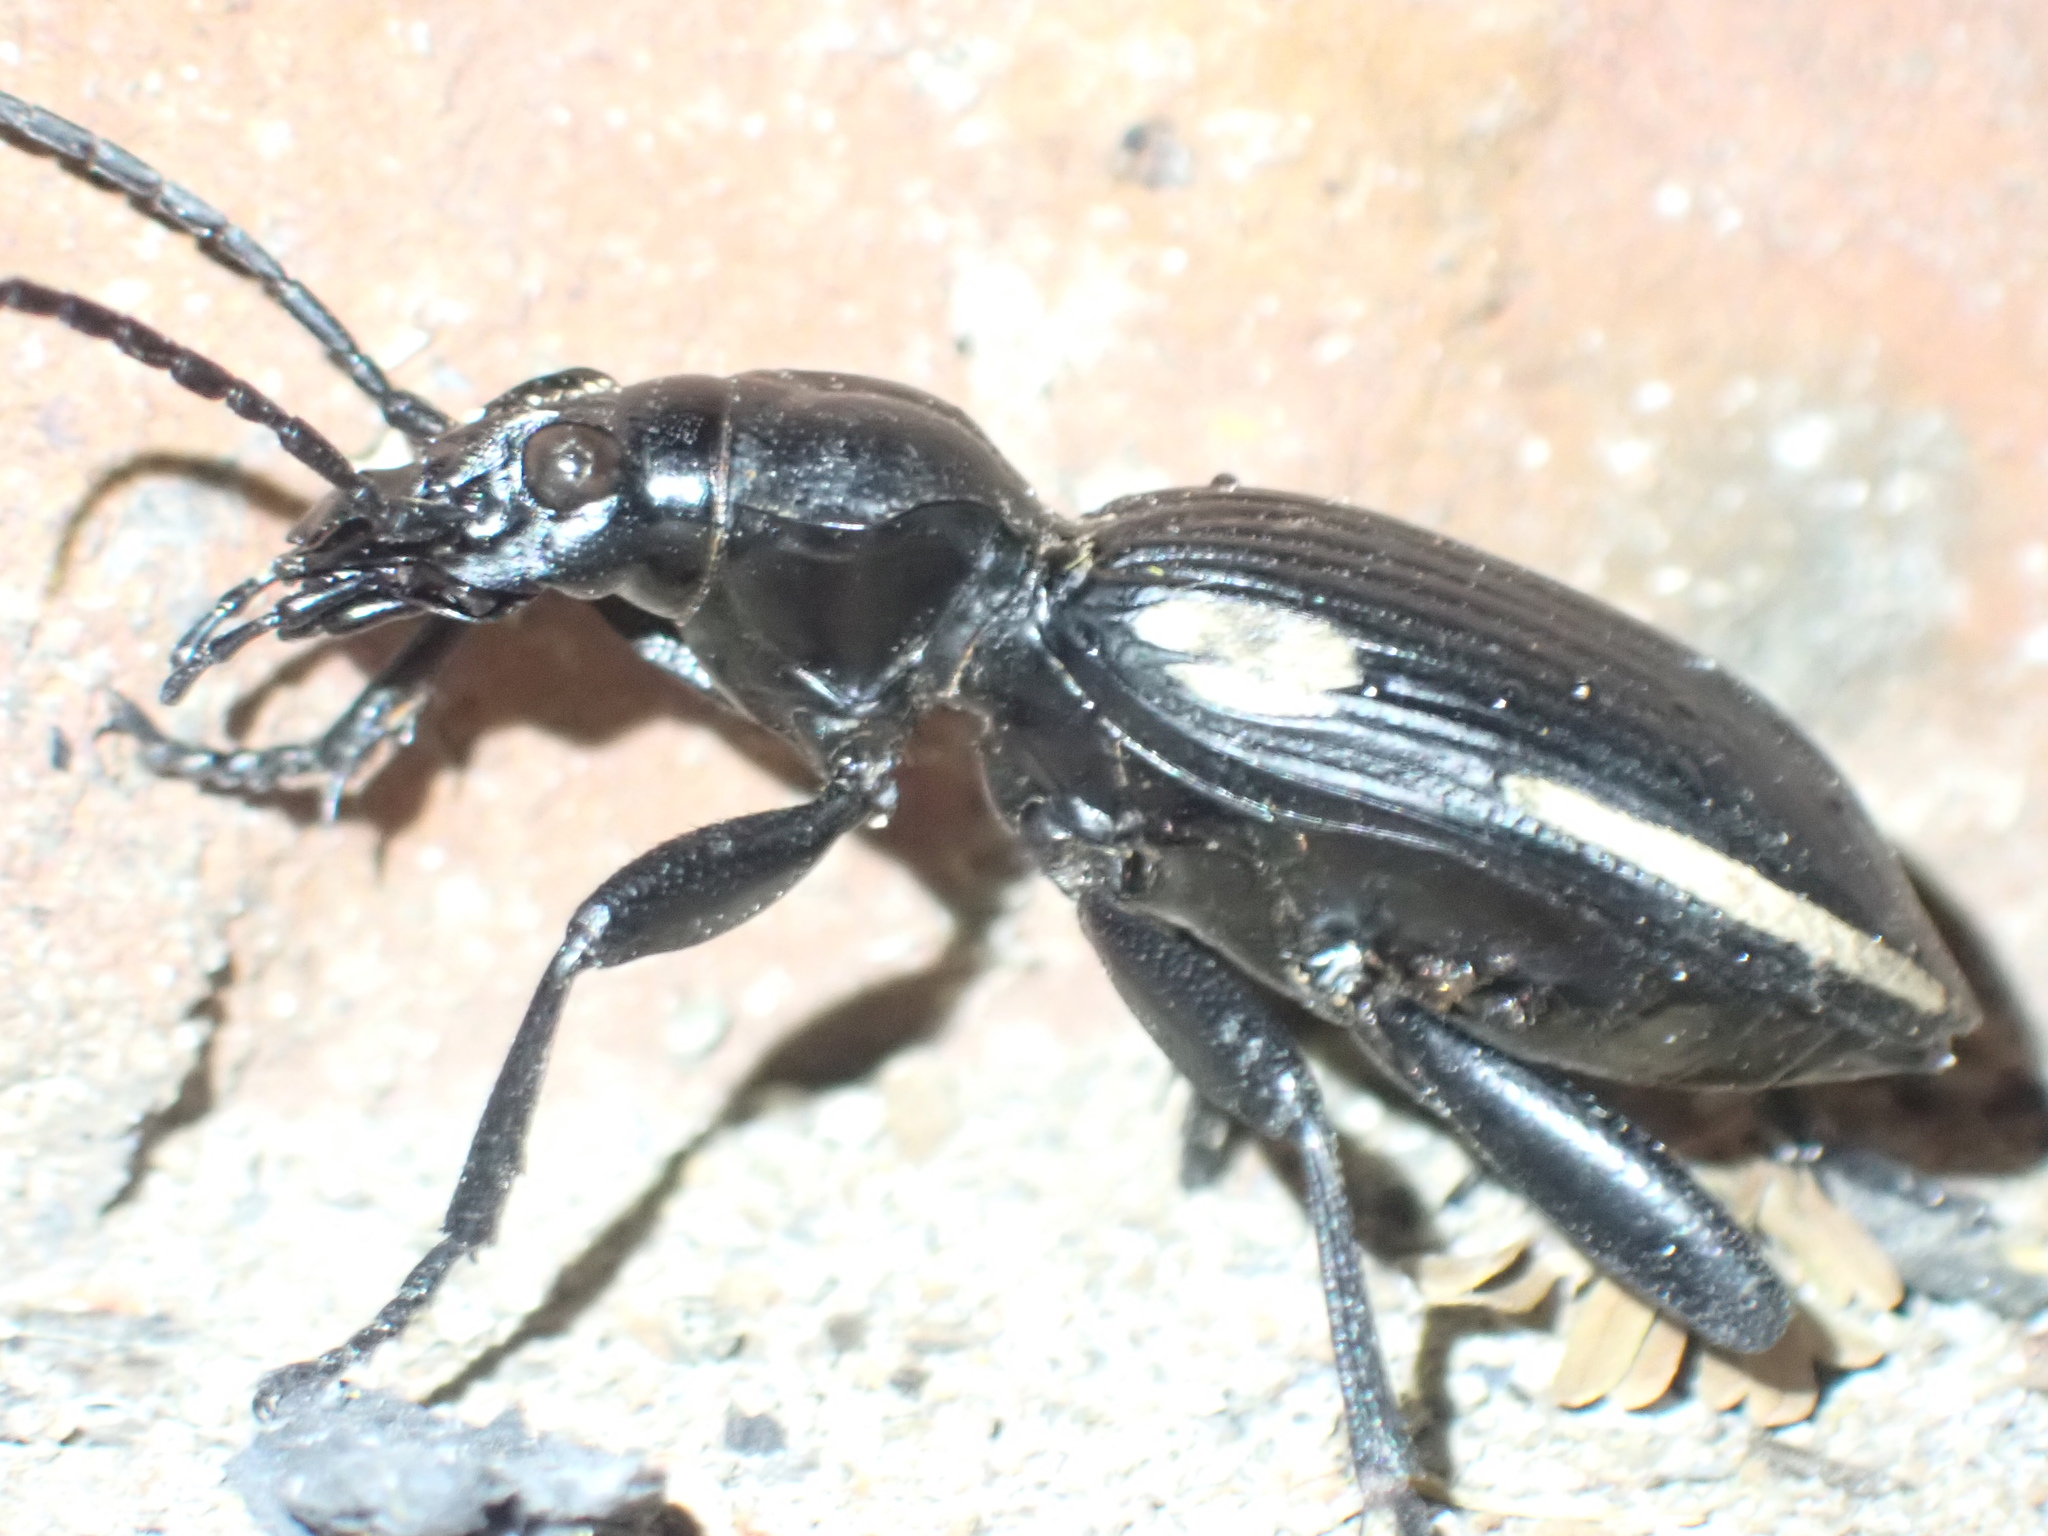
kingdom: Animalia
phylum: Arthropoda
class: Insecta
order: Coleoptera
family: Carabidae
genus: Anthia
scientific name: Anthia
